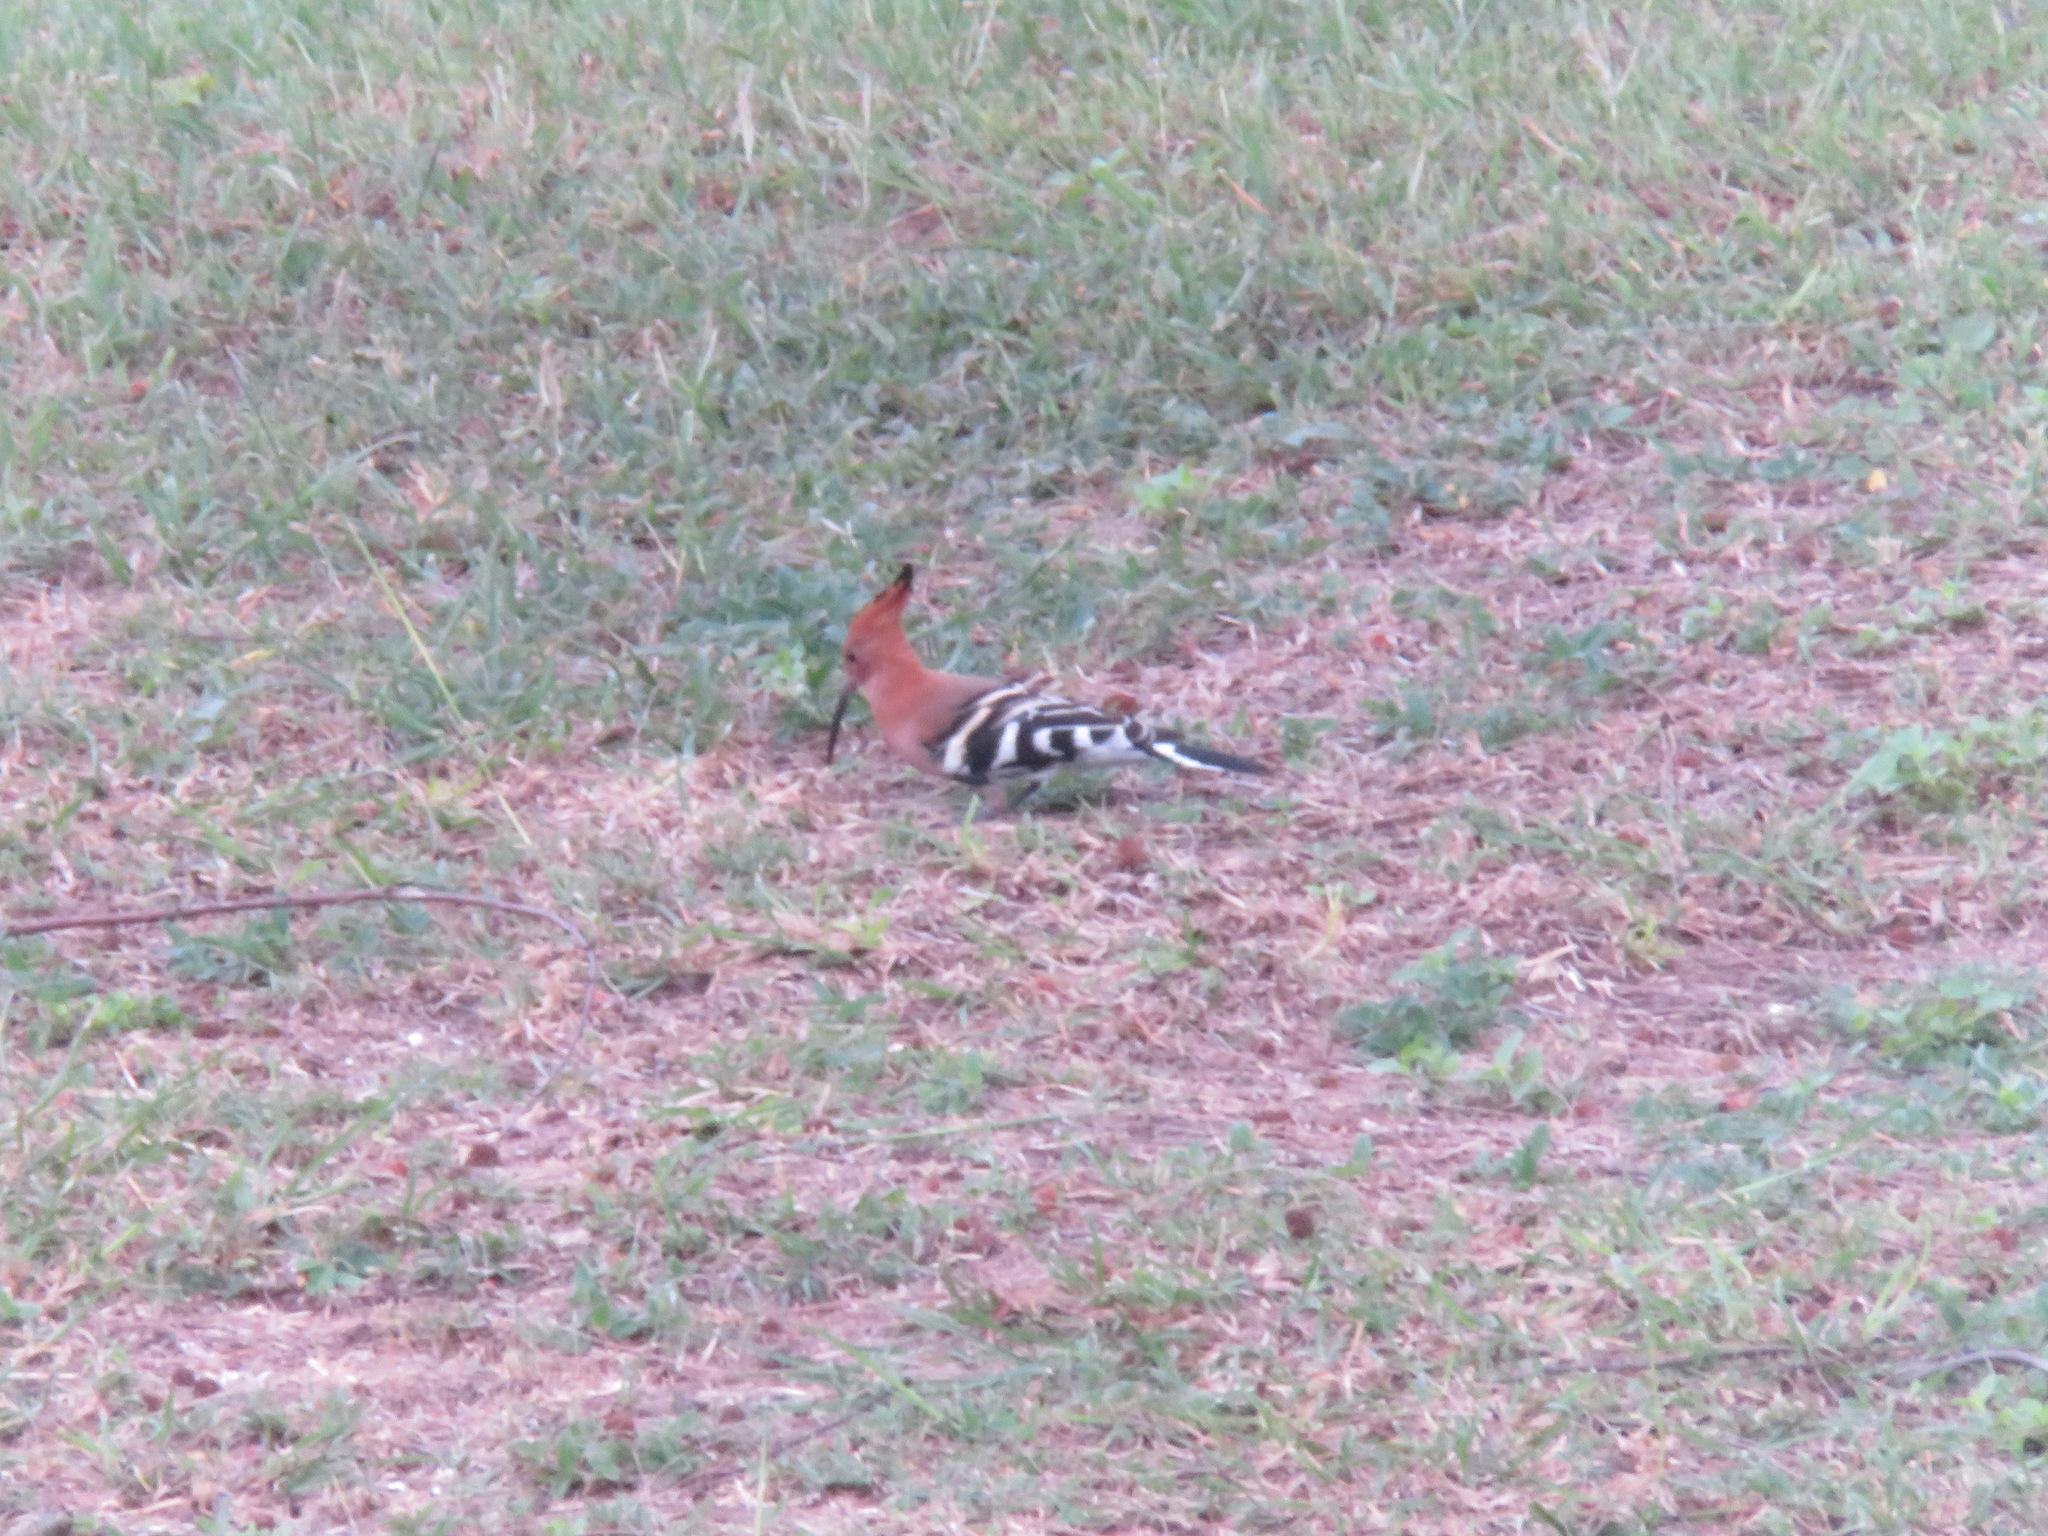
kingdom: Animalia
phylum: Chordata
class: Aves
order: Bucerotiformes
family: Upupidae
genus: Upupa
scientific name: Upupa epops
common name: Eurasian hoopoe
